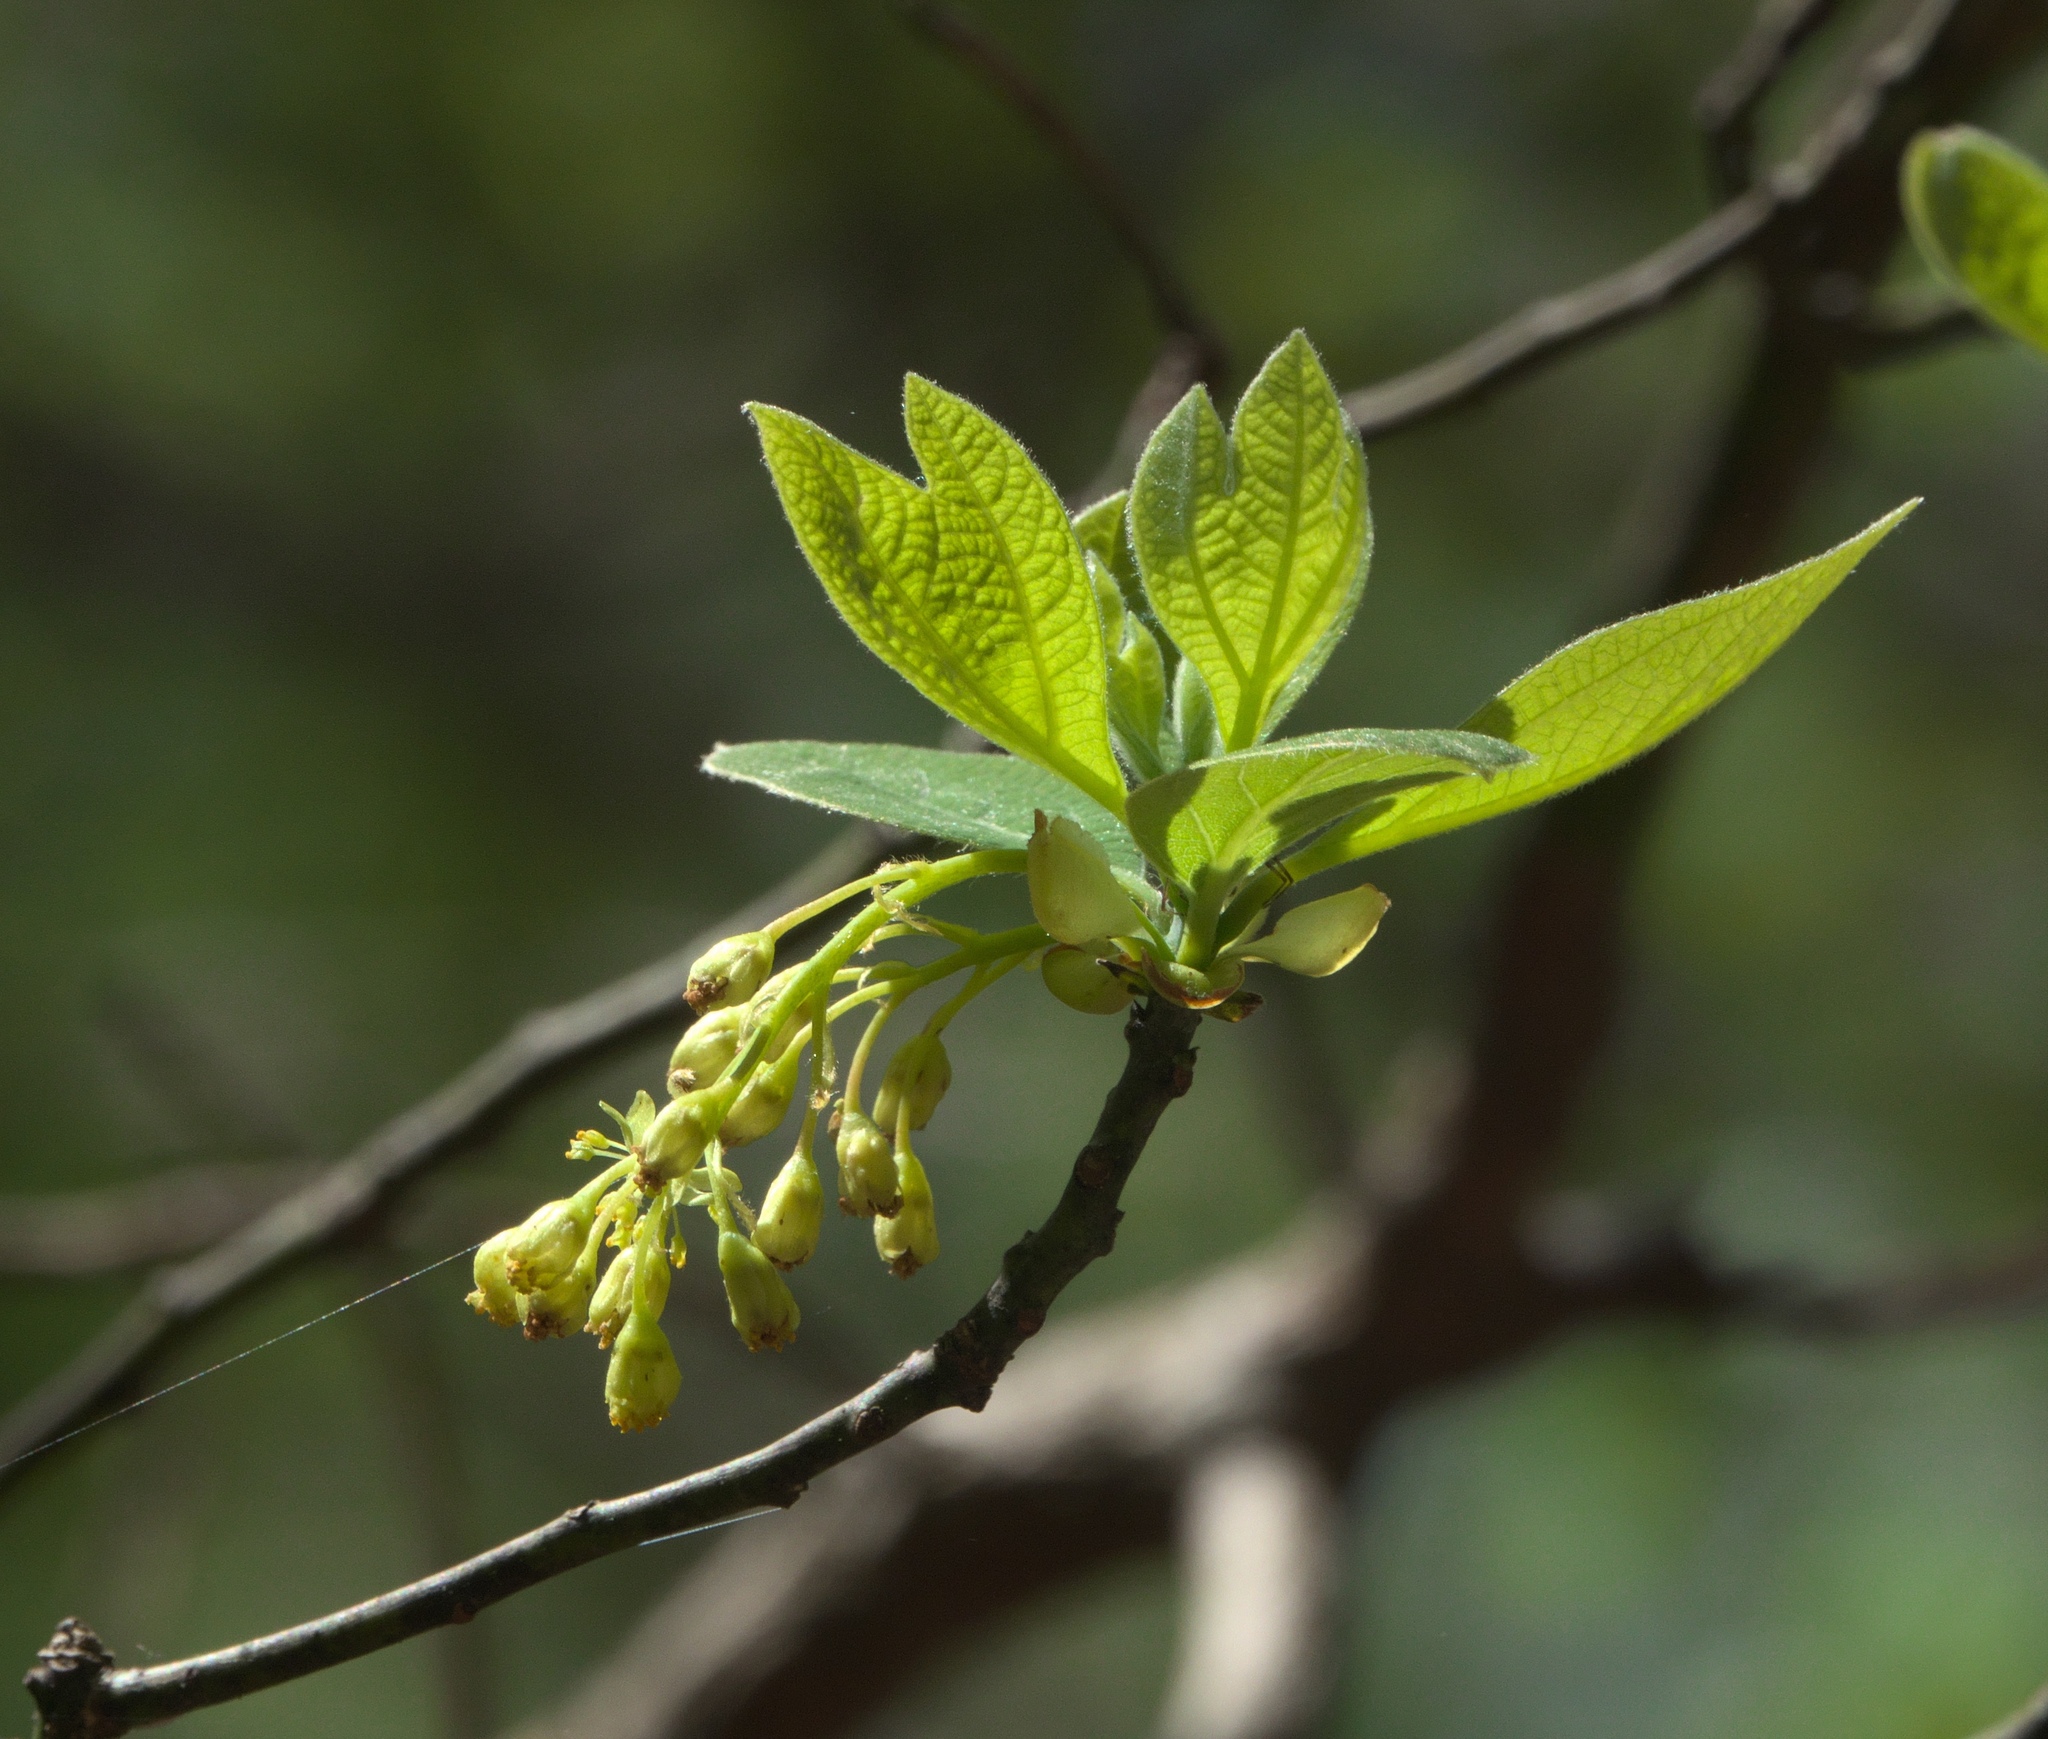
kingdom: Plantae
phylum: Tracheophyta
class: Magnoliopsida
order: Laurales
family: Lauraceae
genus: Sassafras
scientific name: Sassafras albidum
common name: Sassafras
